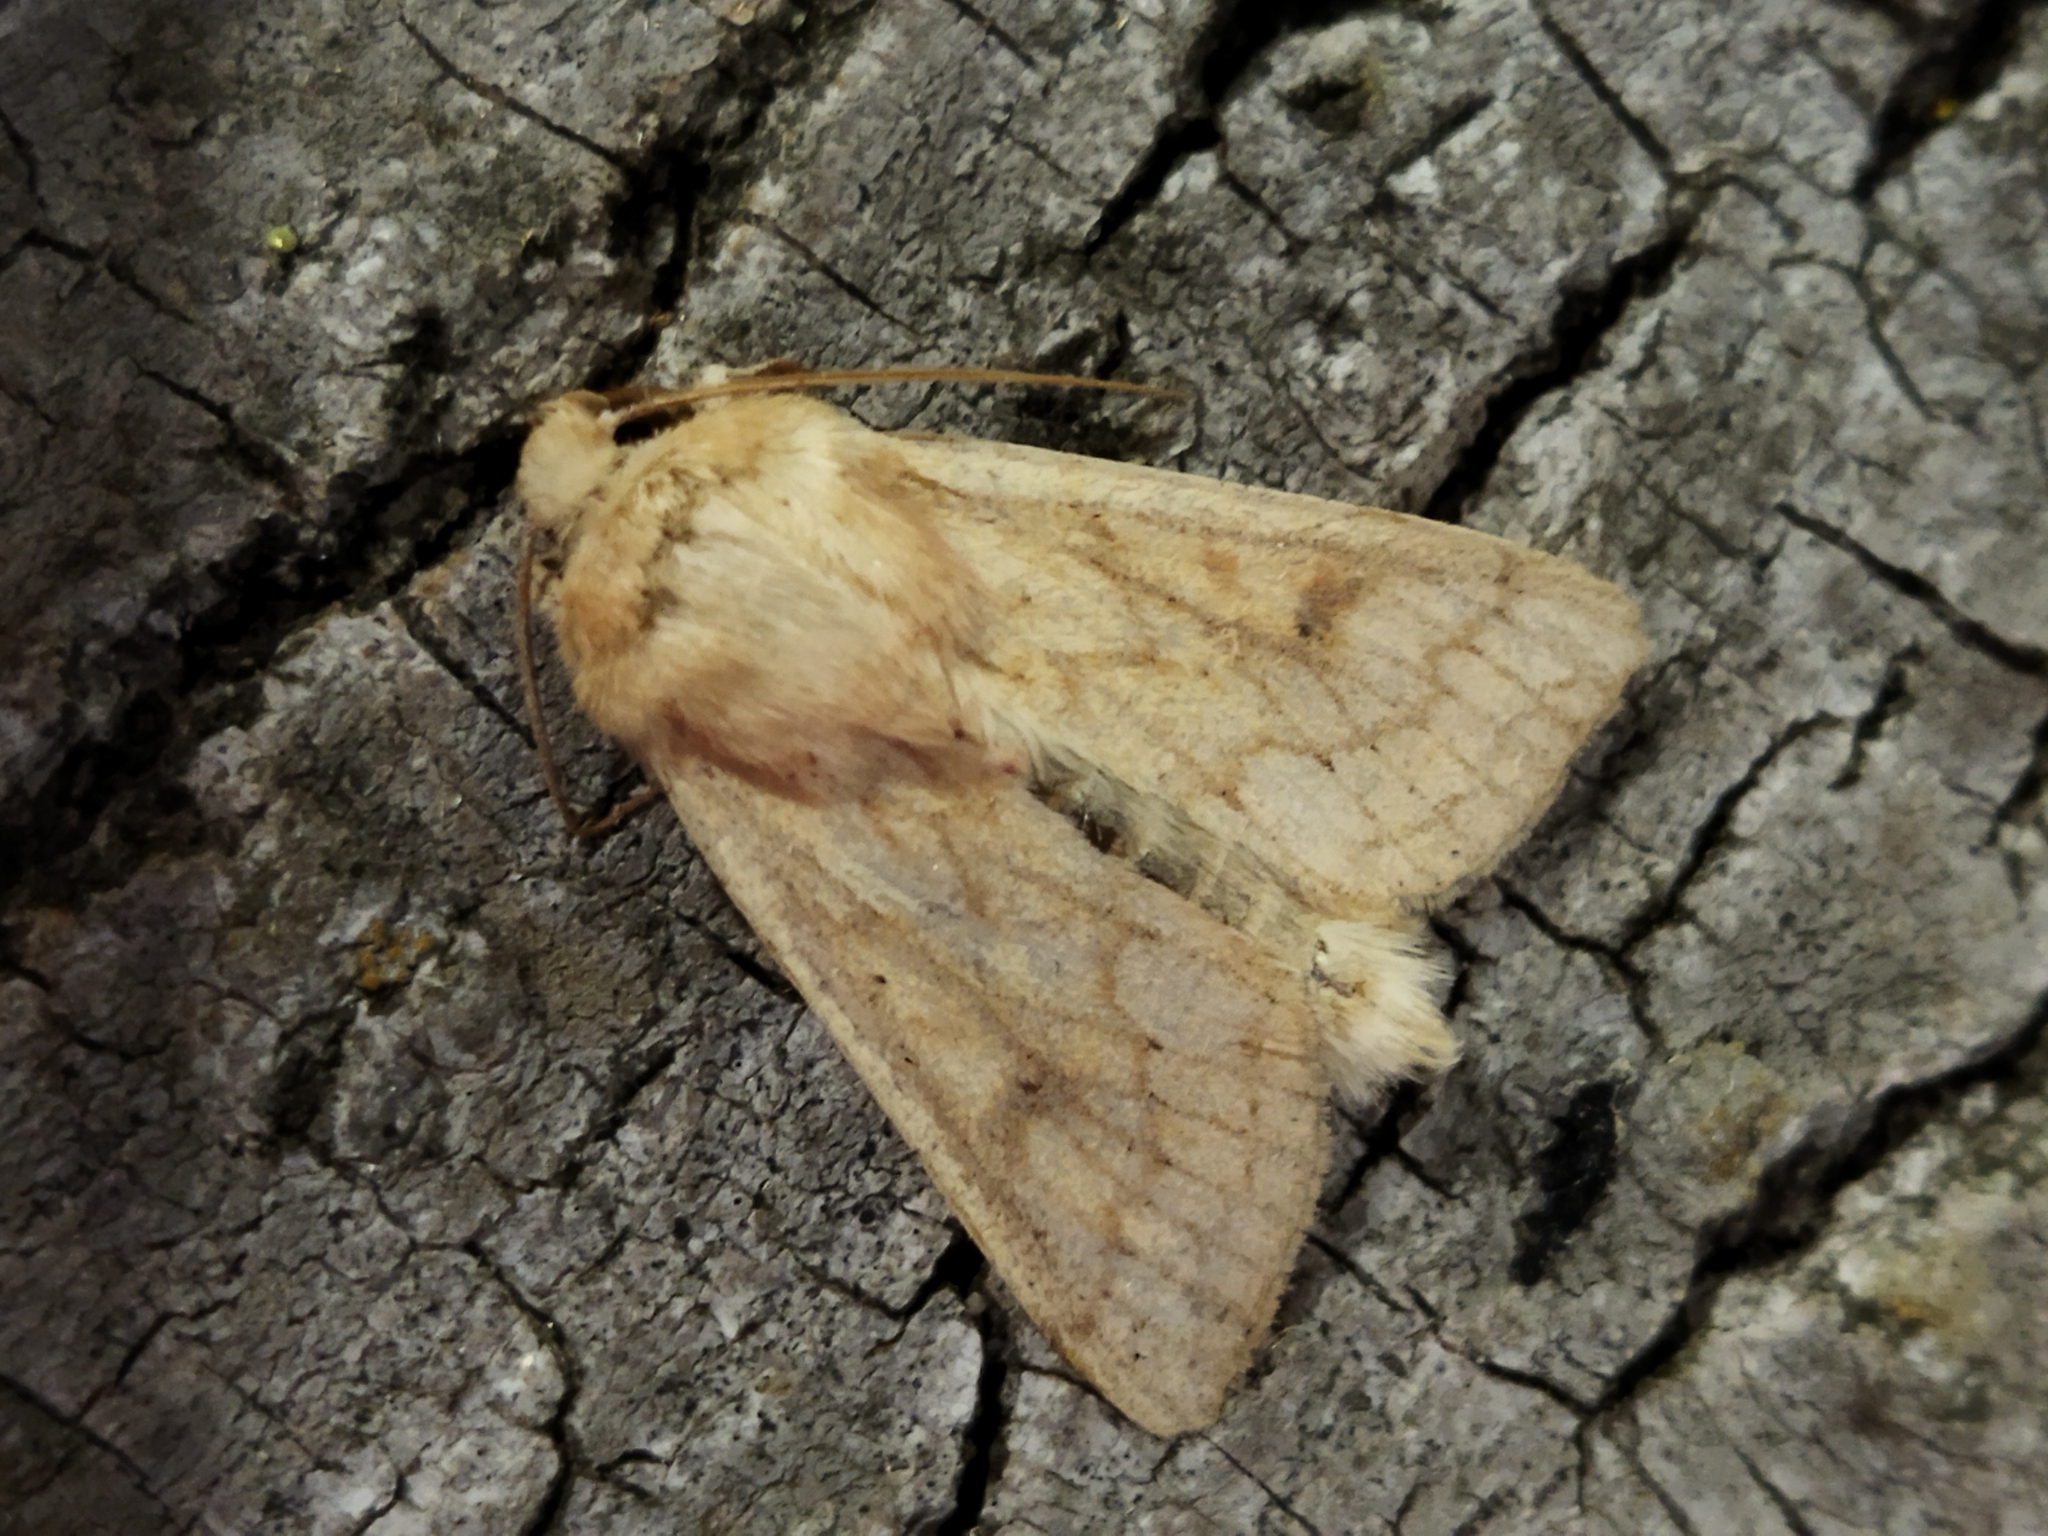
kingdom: Animalia
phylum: Arthropoda
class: Insecta
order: Lepidoptera
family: Noctuidae
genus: Mythimna
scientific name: Mythimna vitellina
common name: Delicate
